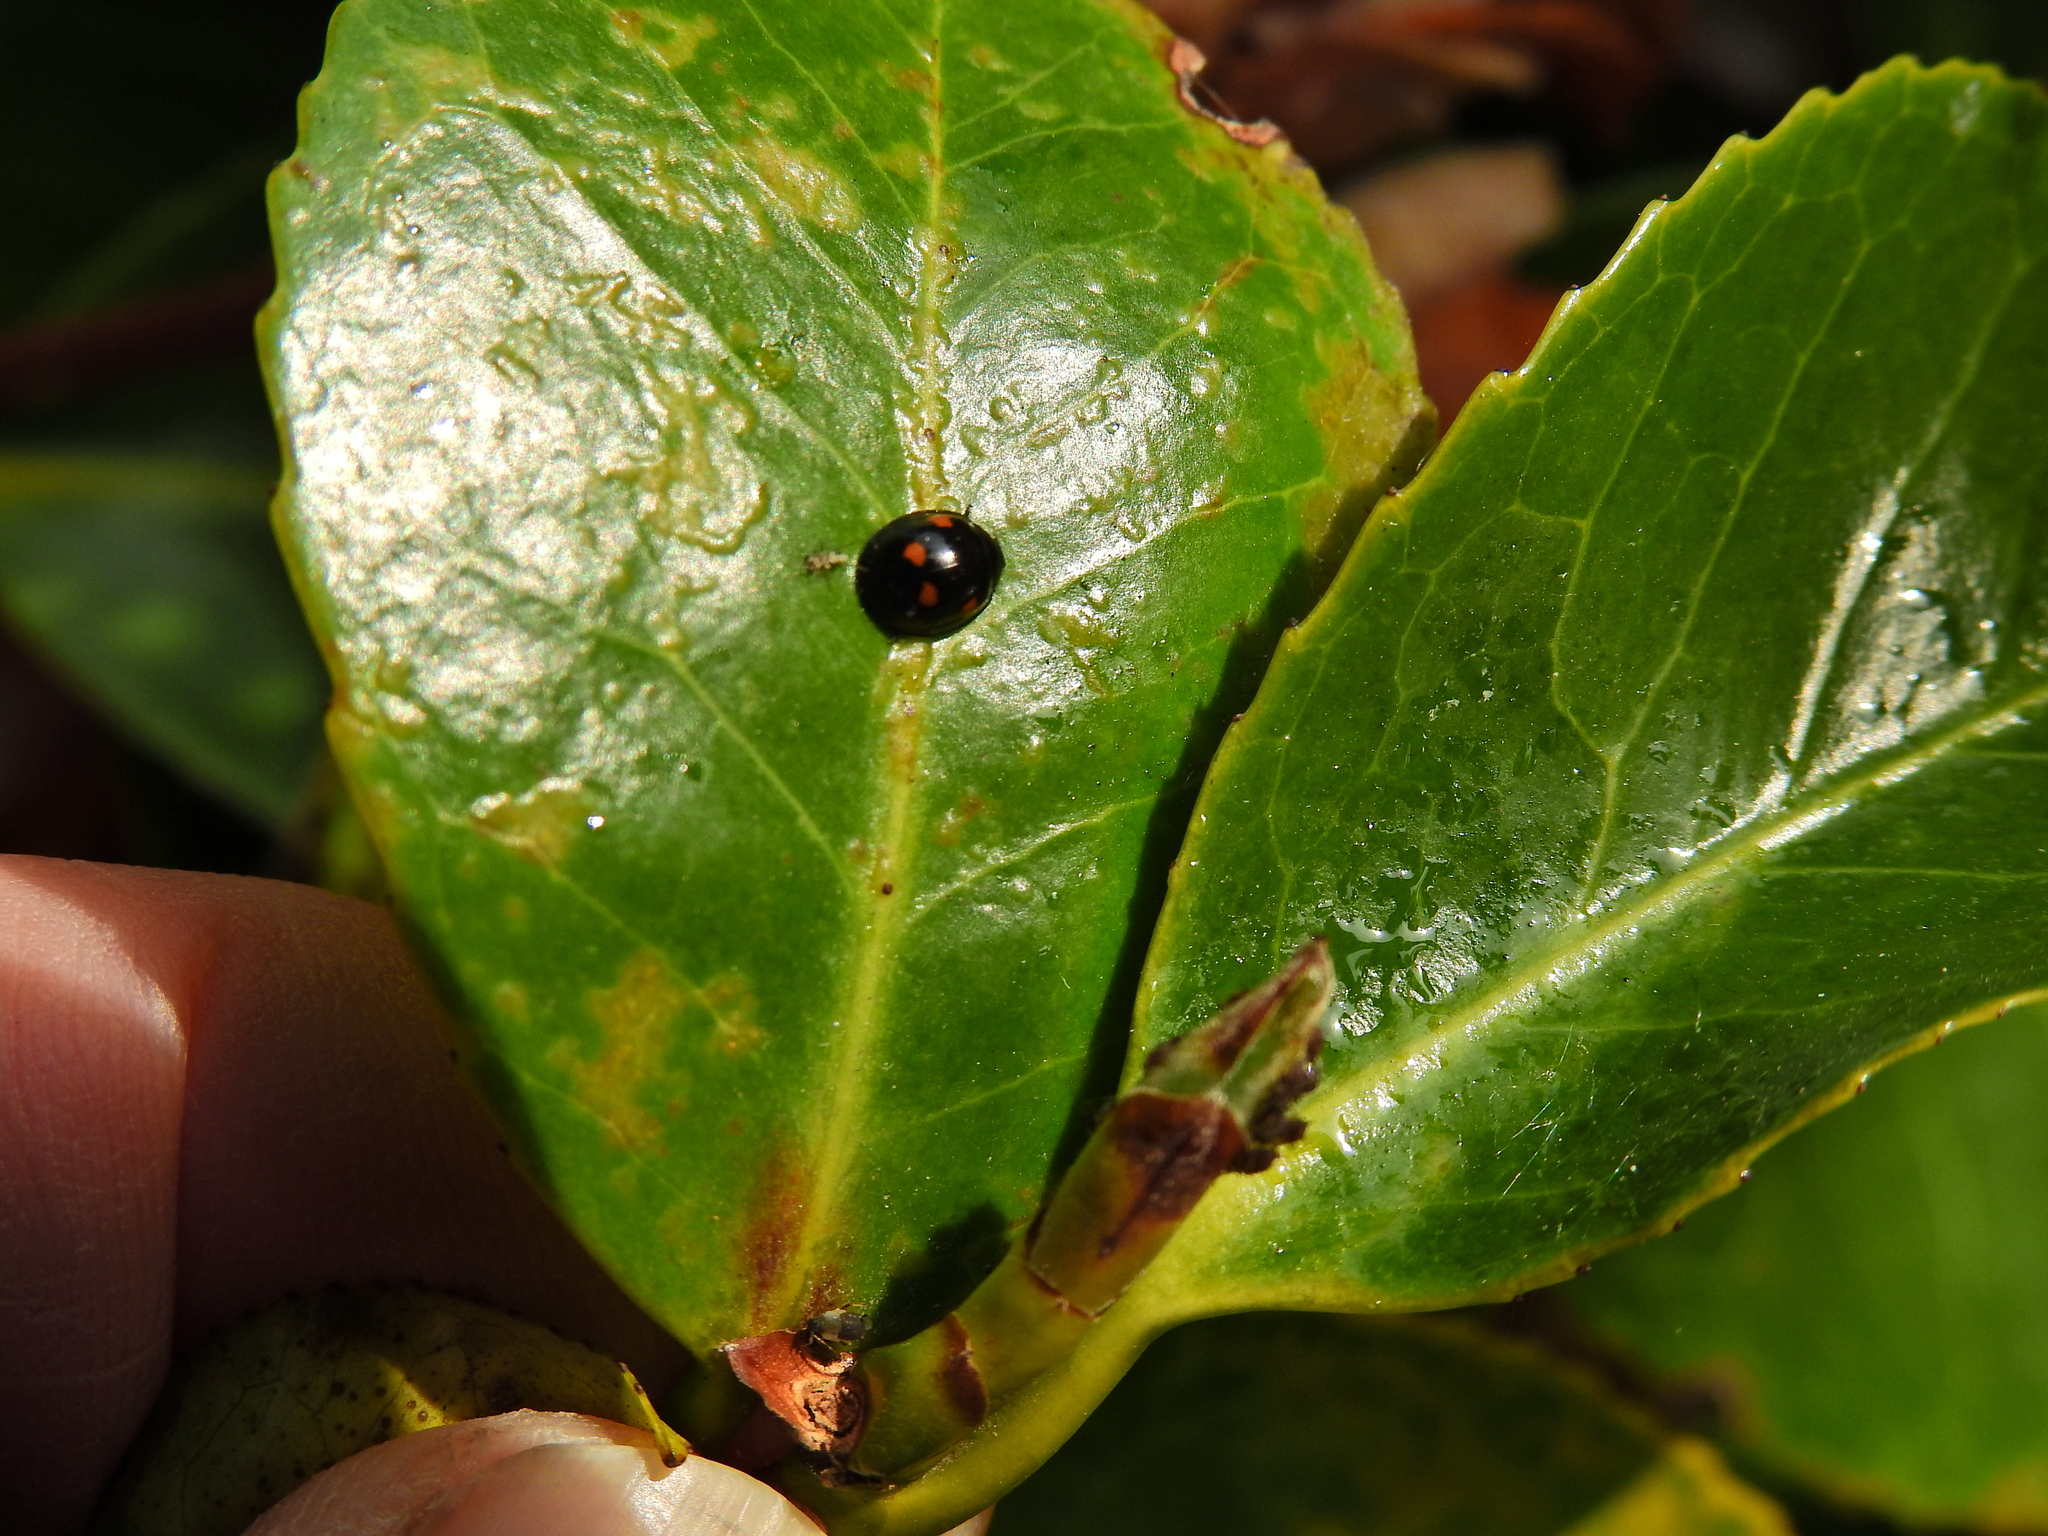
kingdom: Animalia
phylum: Arthropoda
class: Insecta
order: Coleoptera
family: Coccinellidae
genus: Brumus
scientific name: Brumus quadripustulatus
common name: Ladybird beetle
